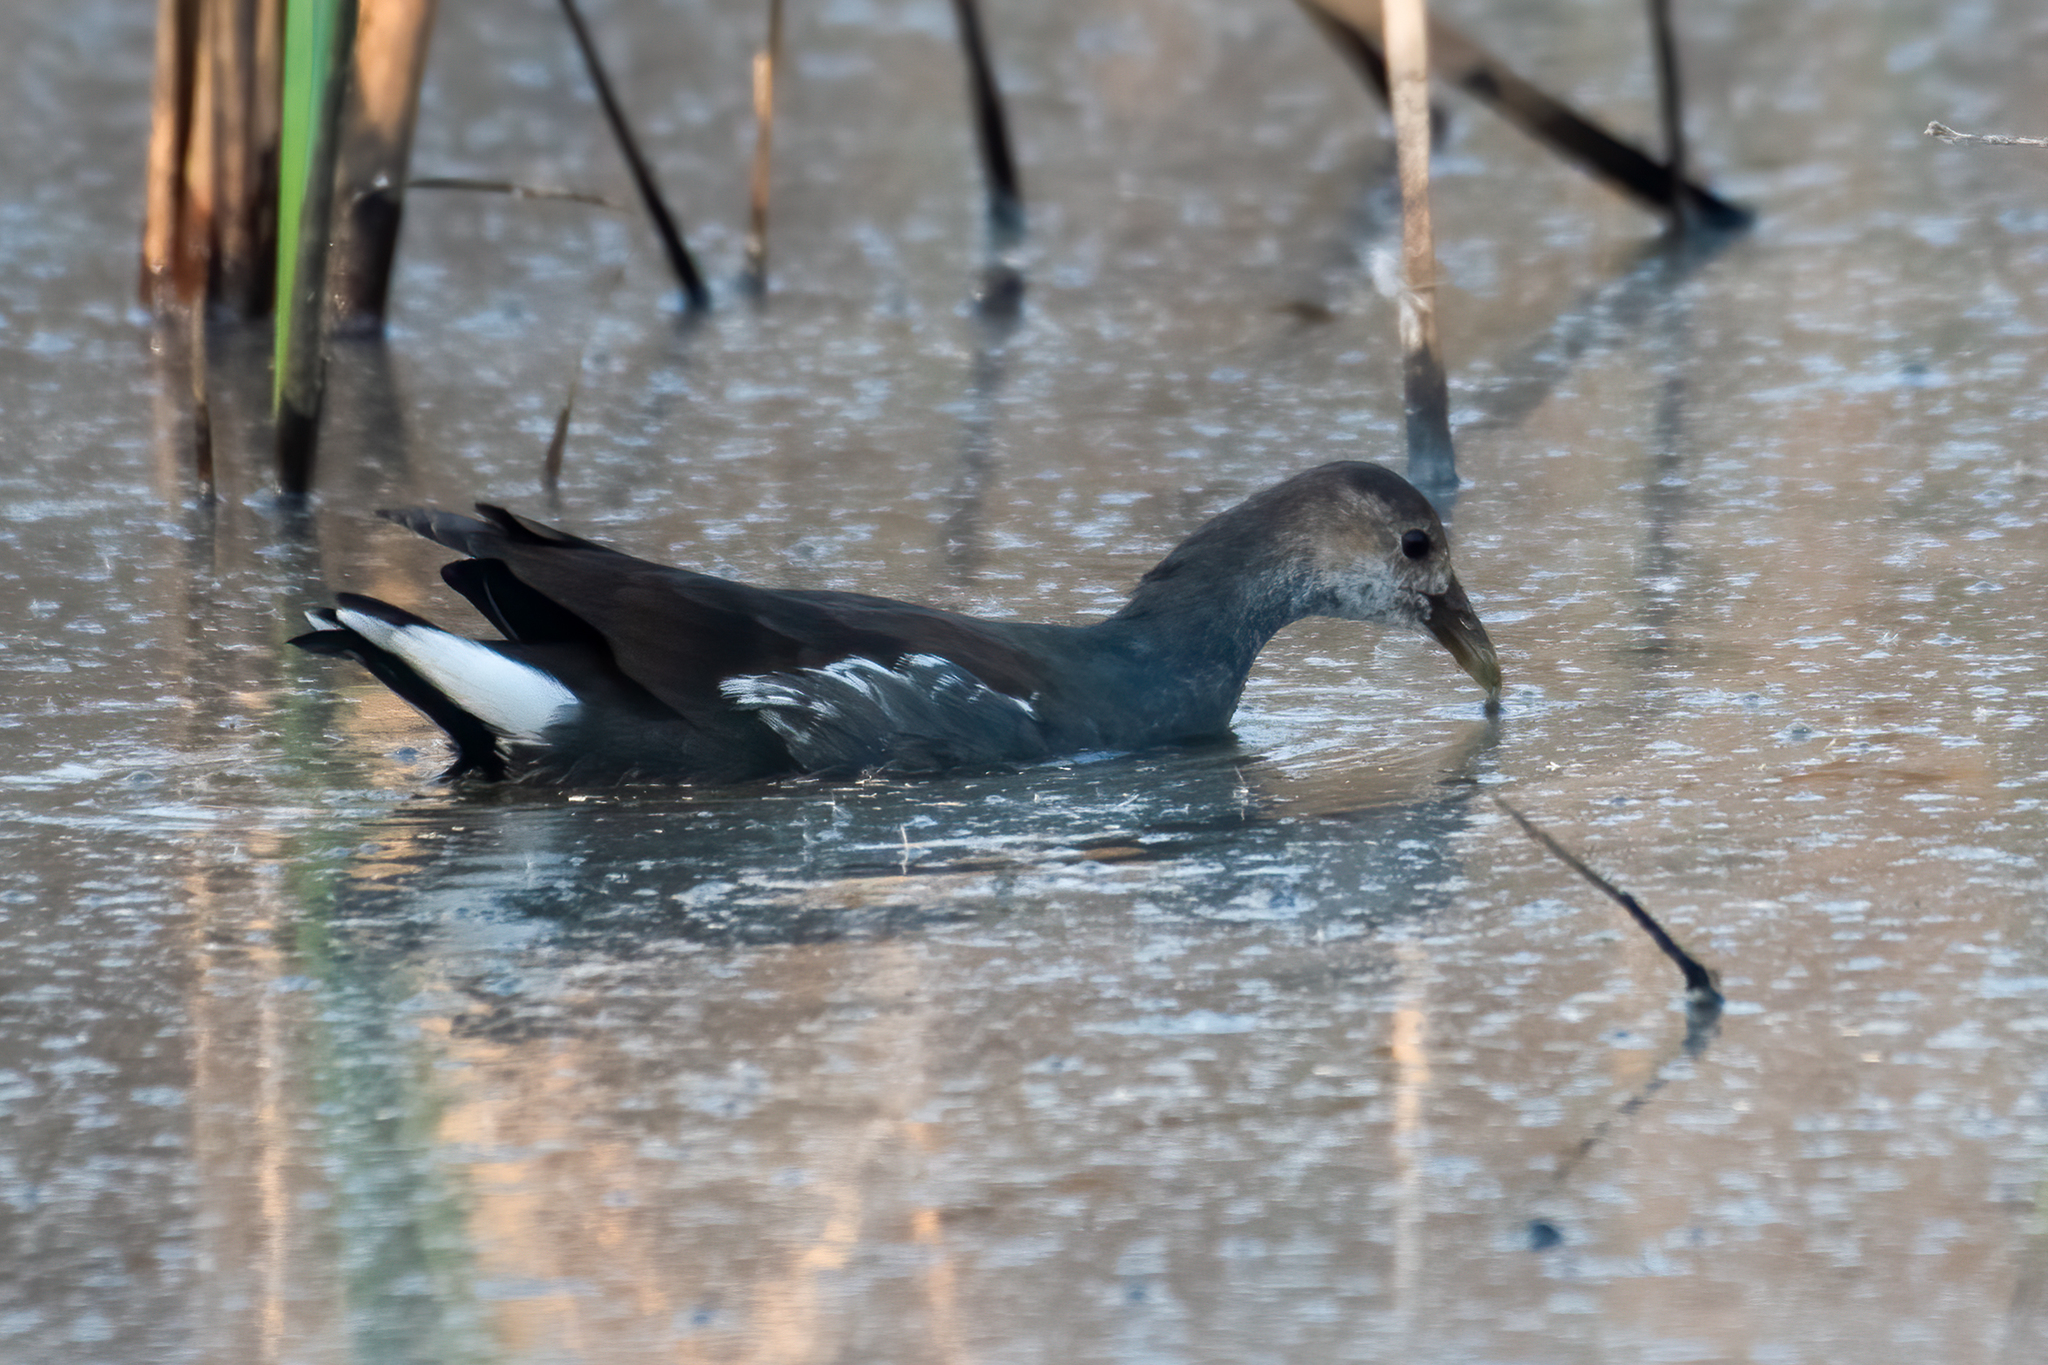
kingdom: Animalia
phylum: Chordata
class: Aves
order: Gruiformes
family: Rallidae
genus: Gallinula
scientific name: Gallinula chloropus
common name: Common moorhen
